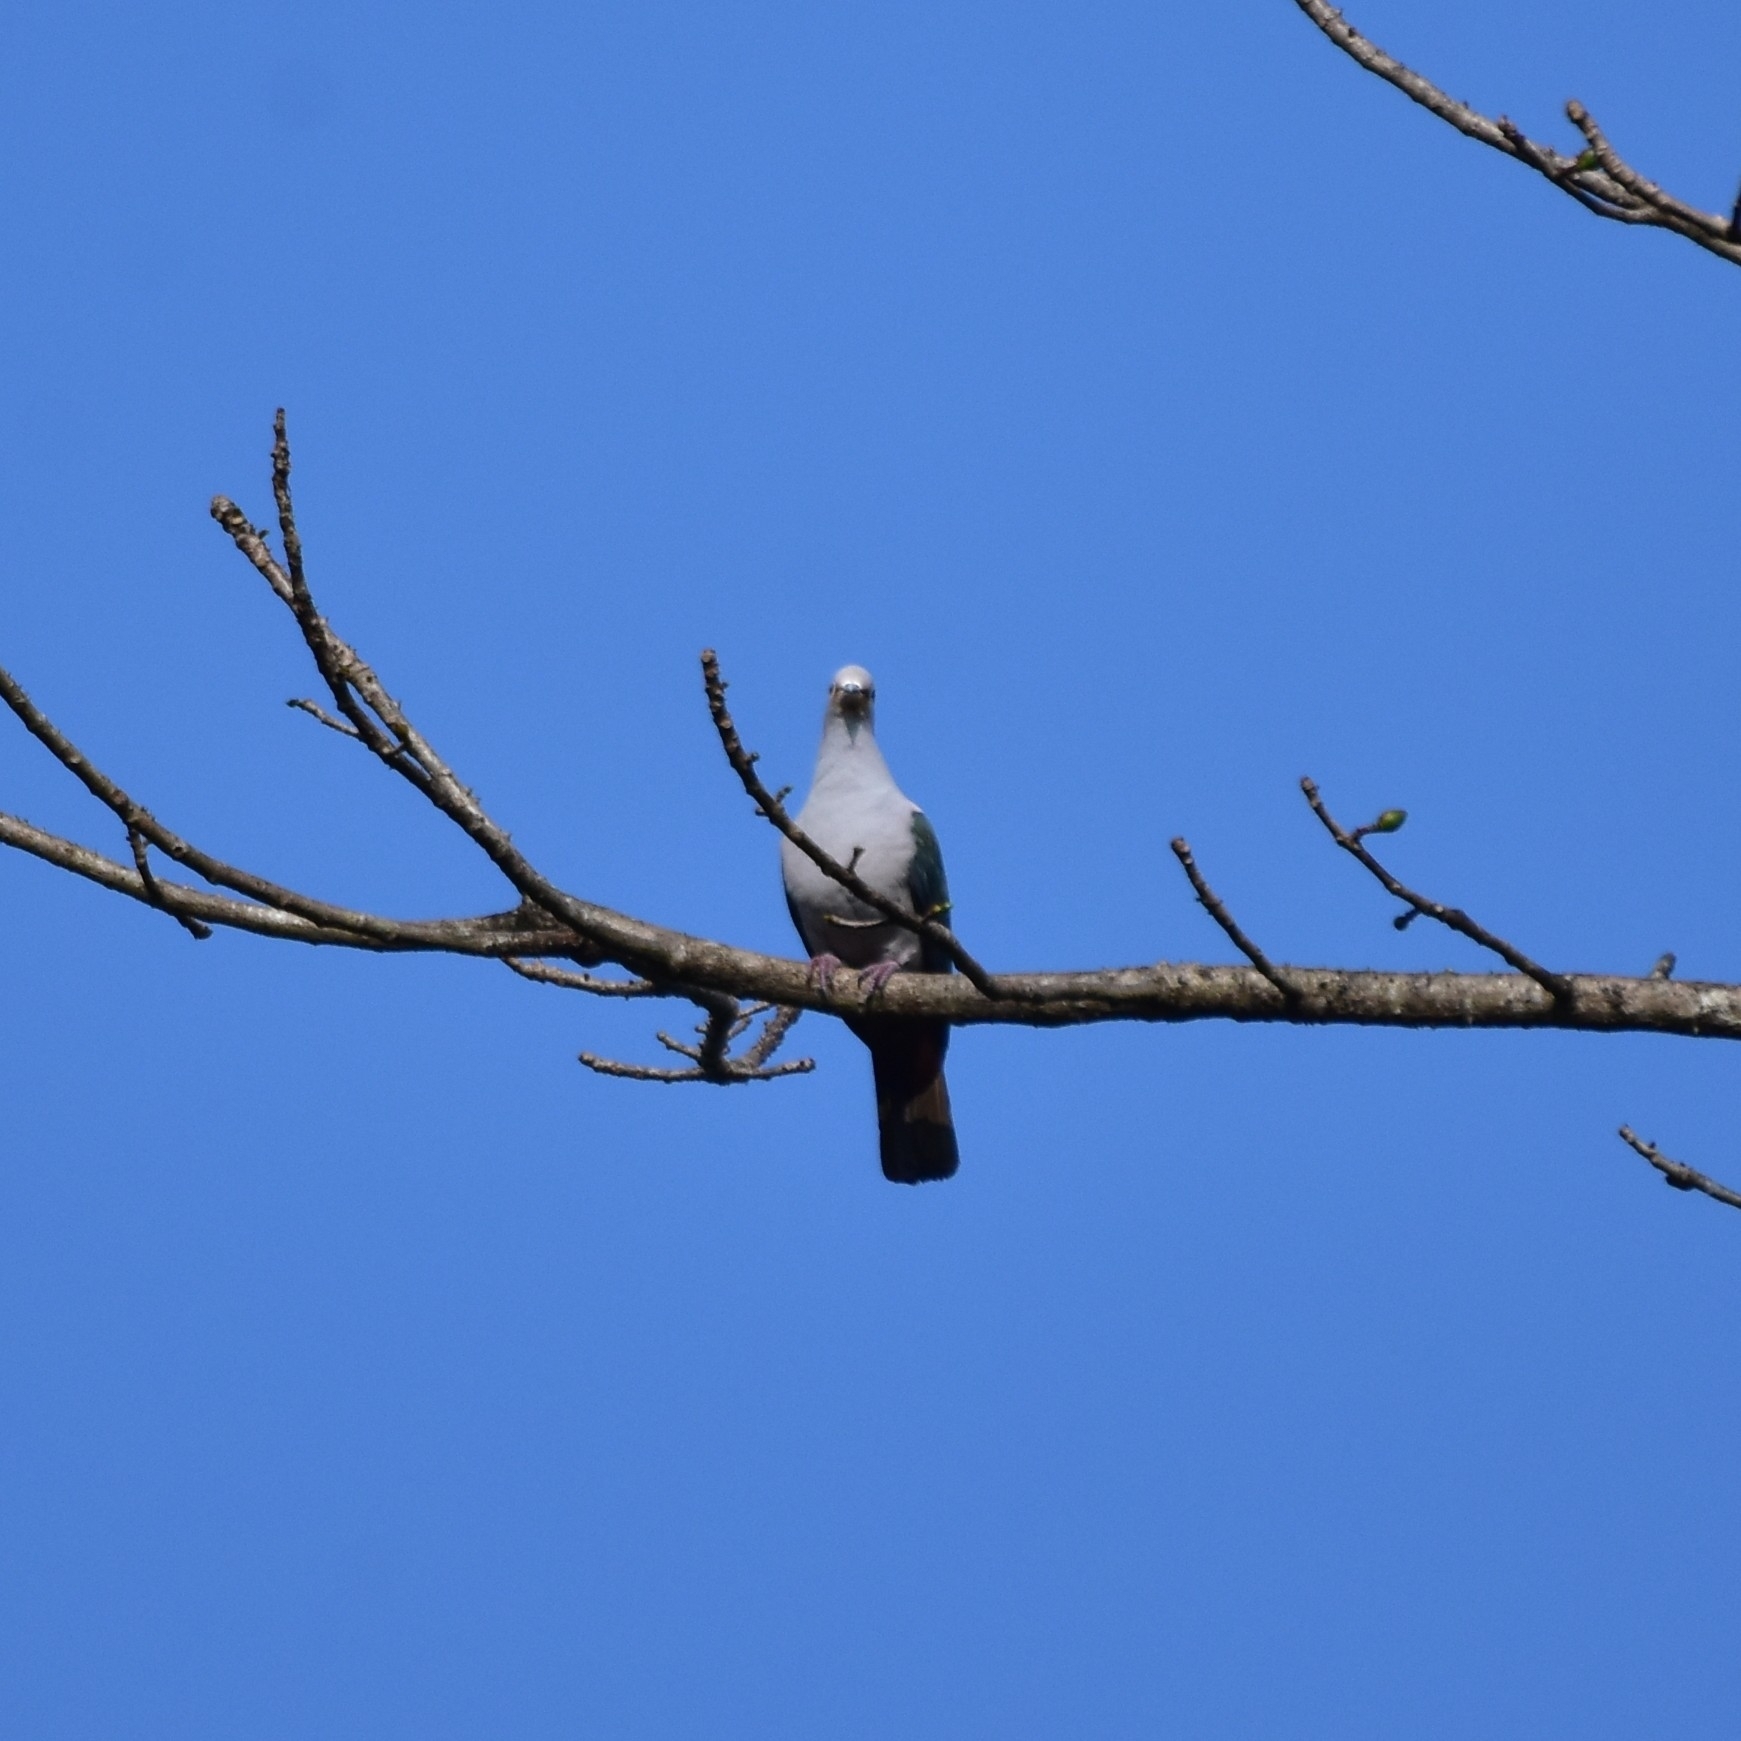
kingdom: Animalia
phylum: Chordata
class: Aves
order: Columbiformes
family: Columbidae
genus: Ducula
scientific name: Ducula aenea
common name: Green imperial pigeon
